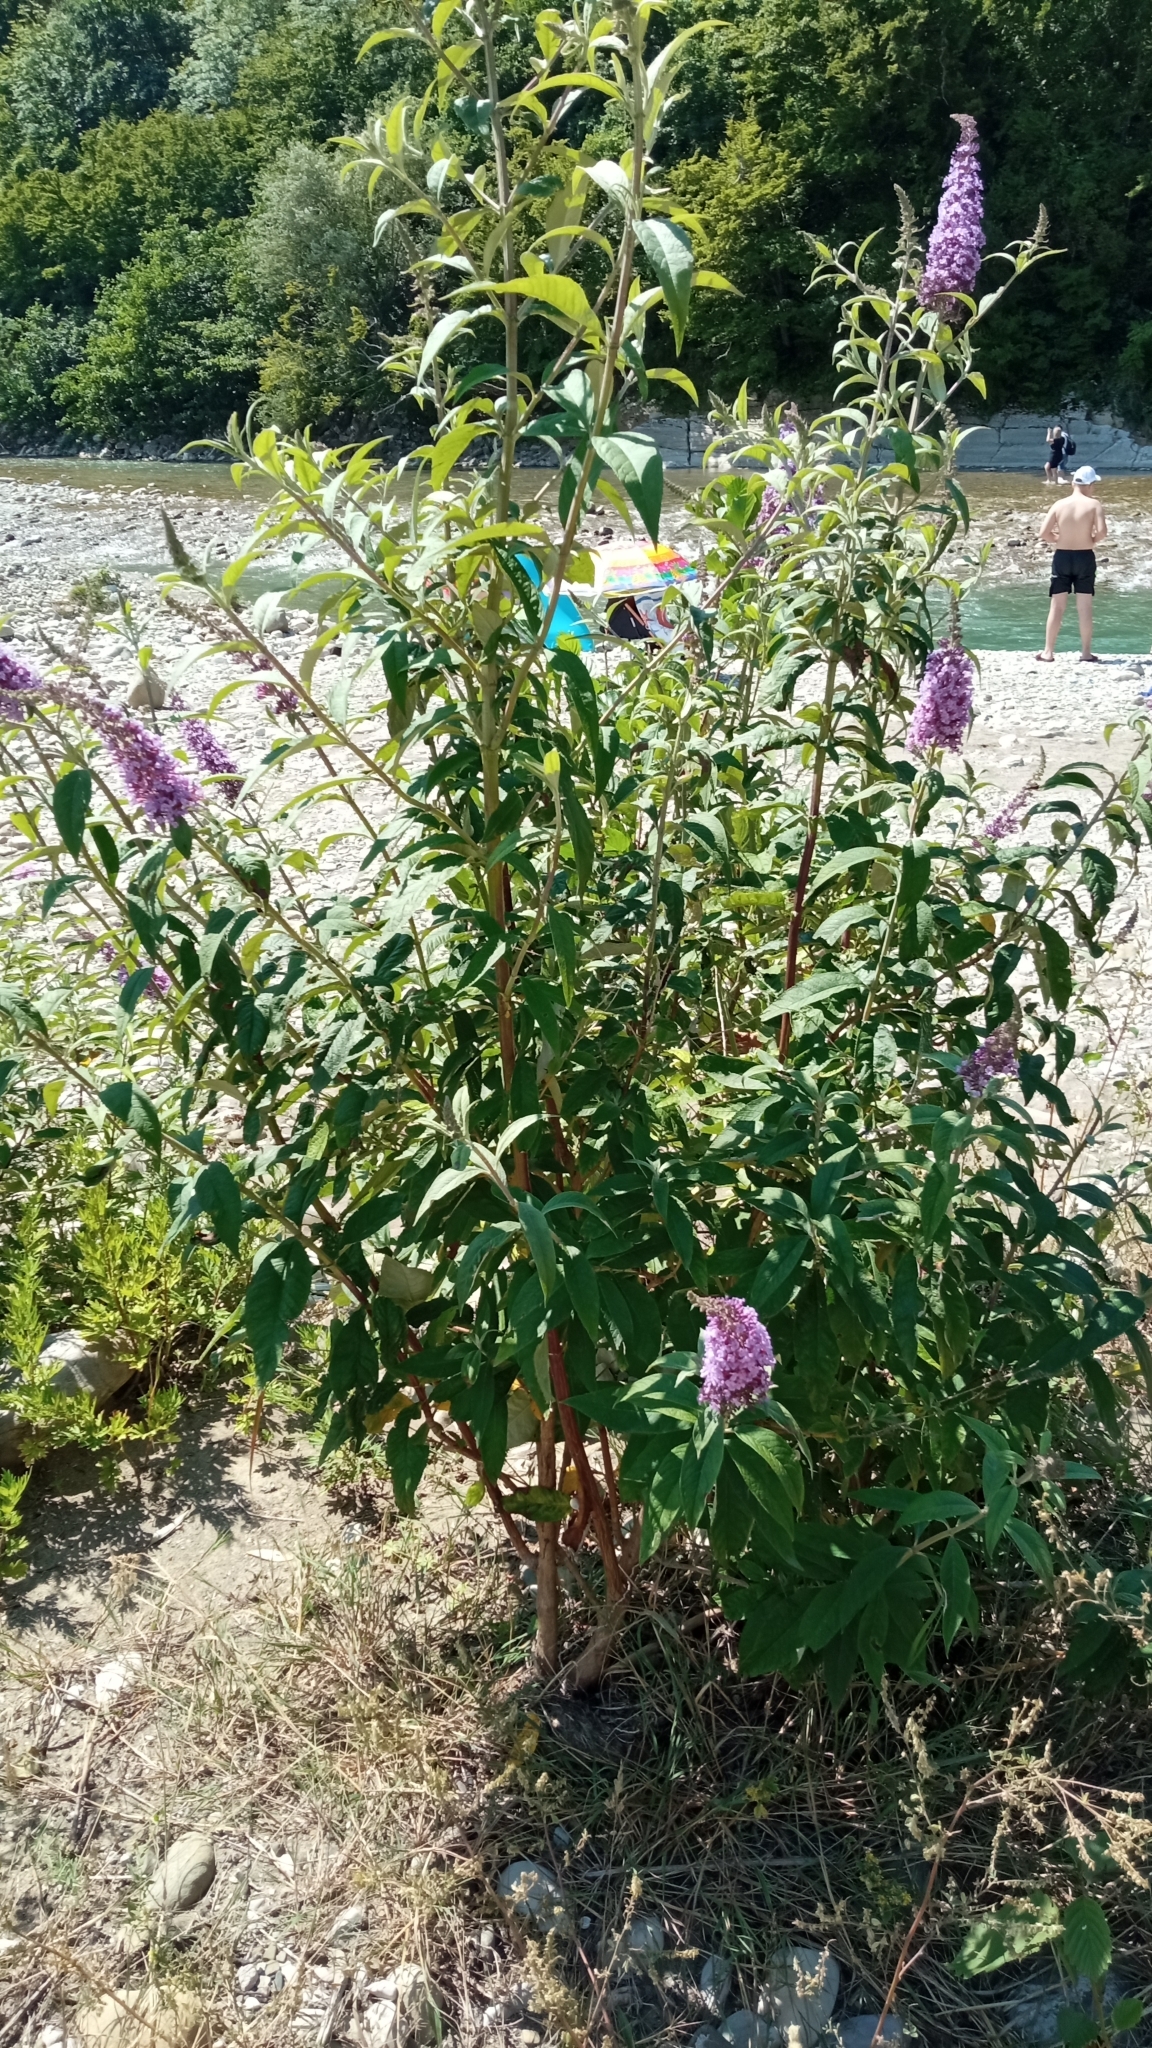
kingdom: Plantae
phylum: Tracheophyta
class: Magnoliopsida
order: Lamiales
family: Scrophulariaceae
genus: Buddleja
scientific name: Buddleja davidii
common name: Butterfly-bush
